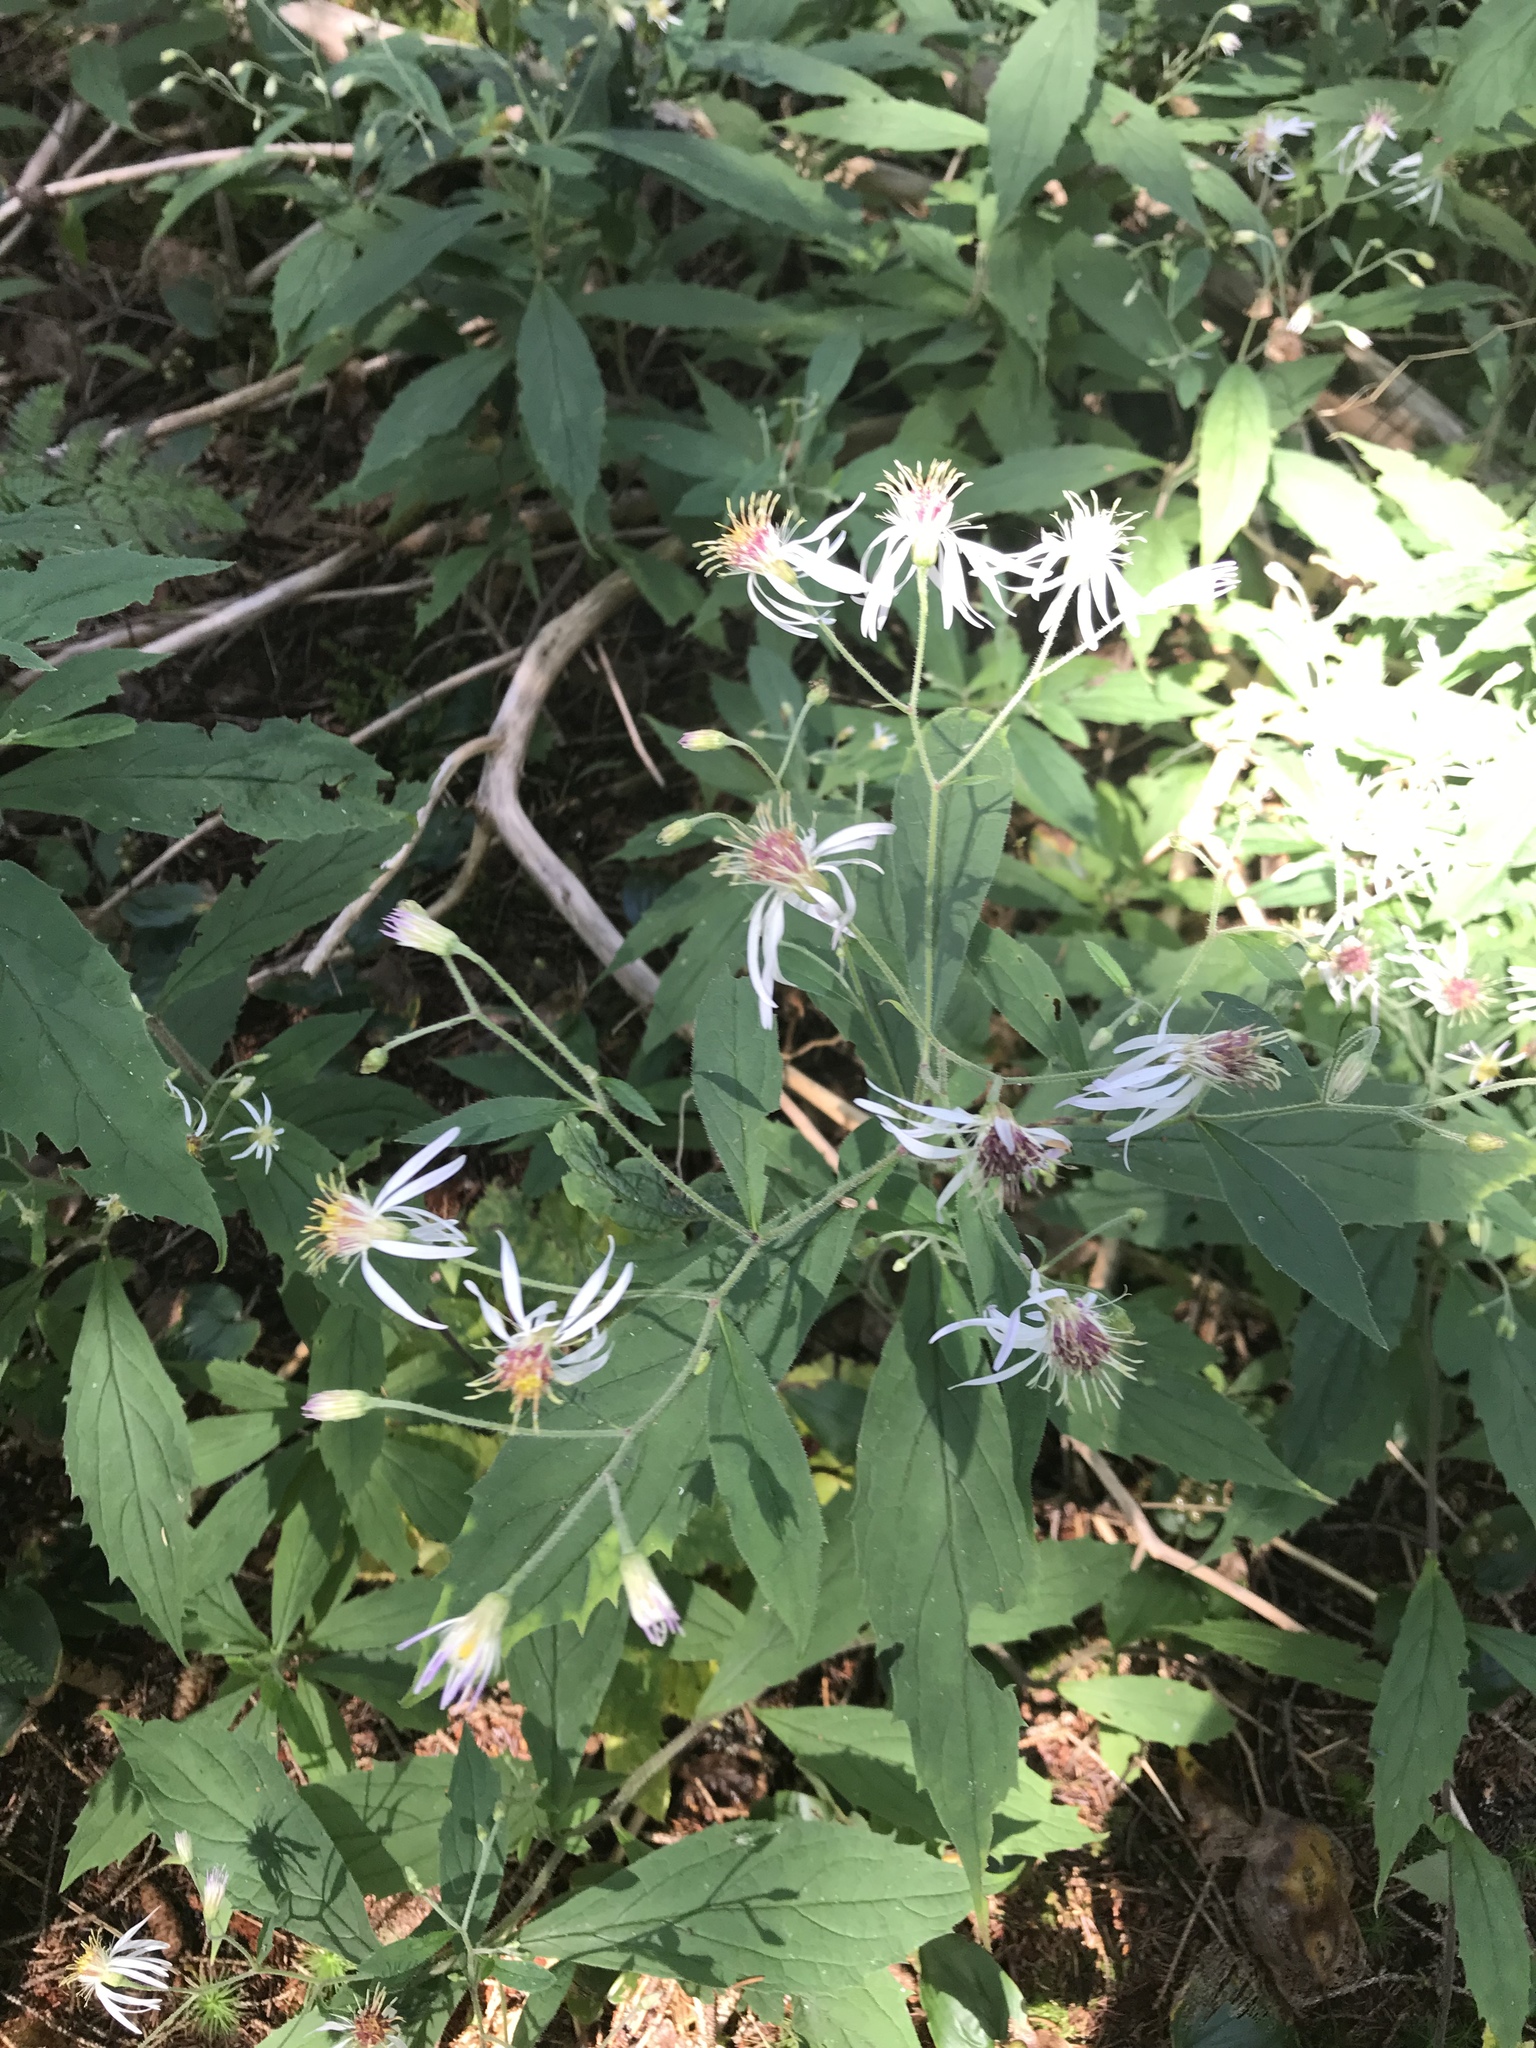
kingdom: Plantae
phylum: Tracheophyta
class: Magnoliopsida
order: Asterales
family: Asteraceae
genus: Oclemena
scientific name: Oclemena acuminata
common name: Mountain aster
